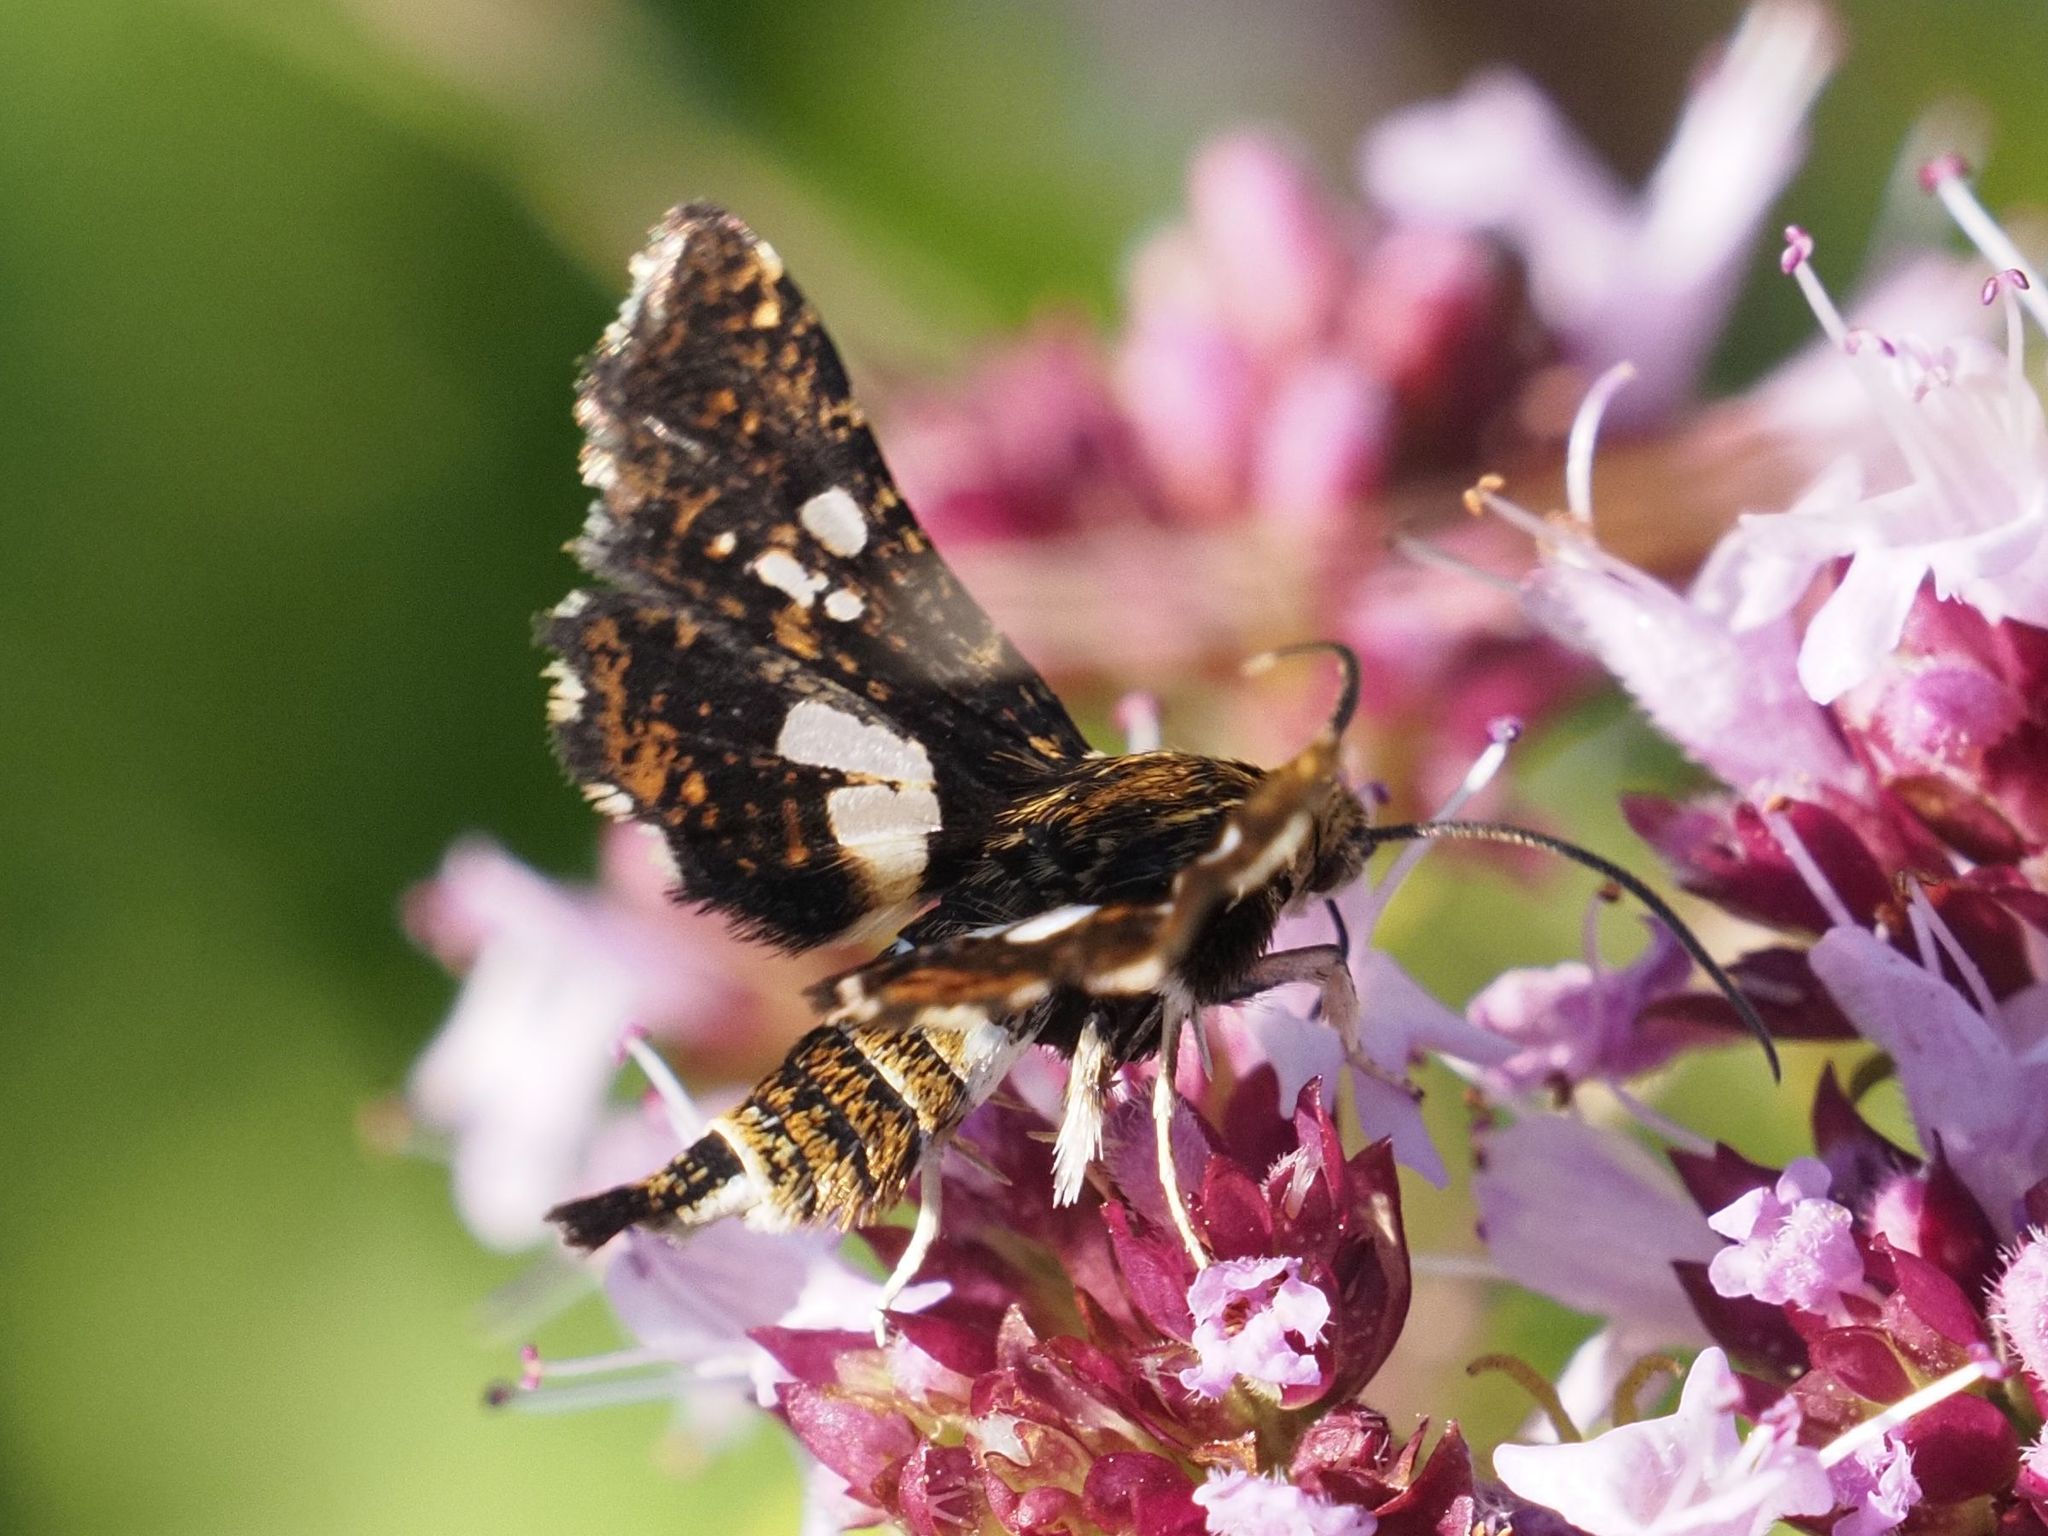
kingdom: Animalia
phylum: Arthropoda
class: Insecta
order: Lepidoptera
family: Thyrididae
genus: Thyris
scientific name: Thyris fenestrella
